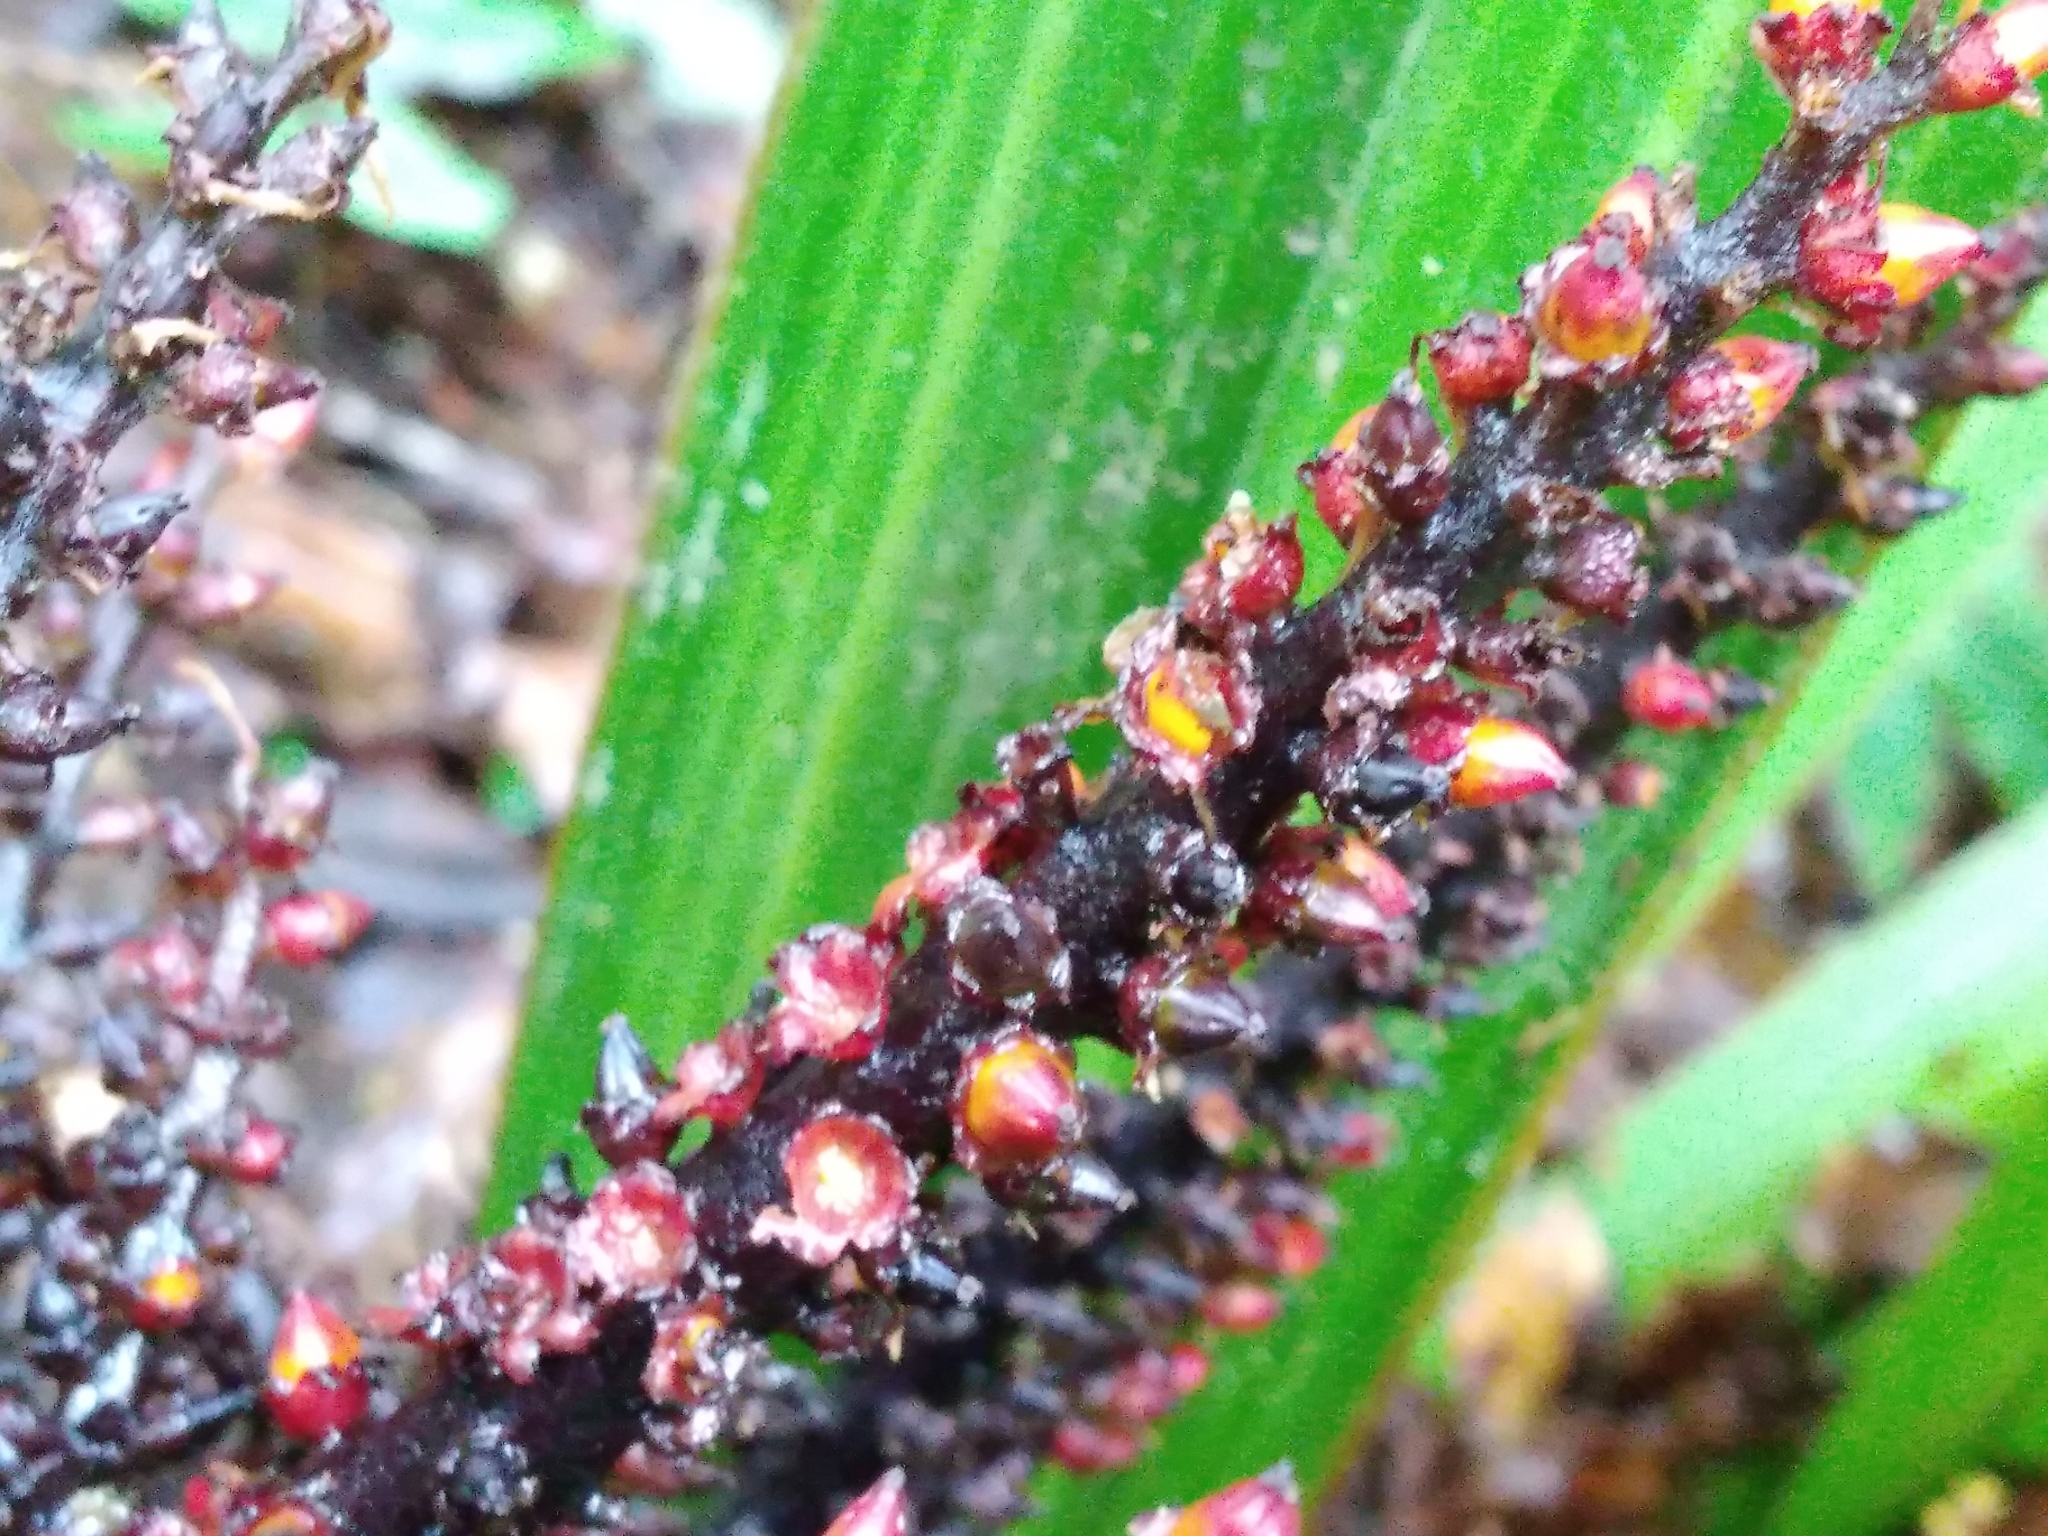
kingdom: Plantae
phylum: Tracheophyta
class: Liliopsida
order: Asparagales
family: Asteliaceae
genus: Astelia
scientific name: Astelia nivicola
